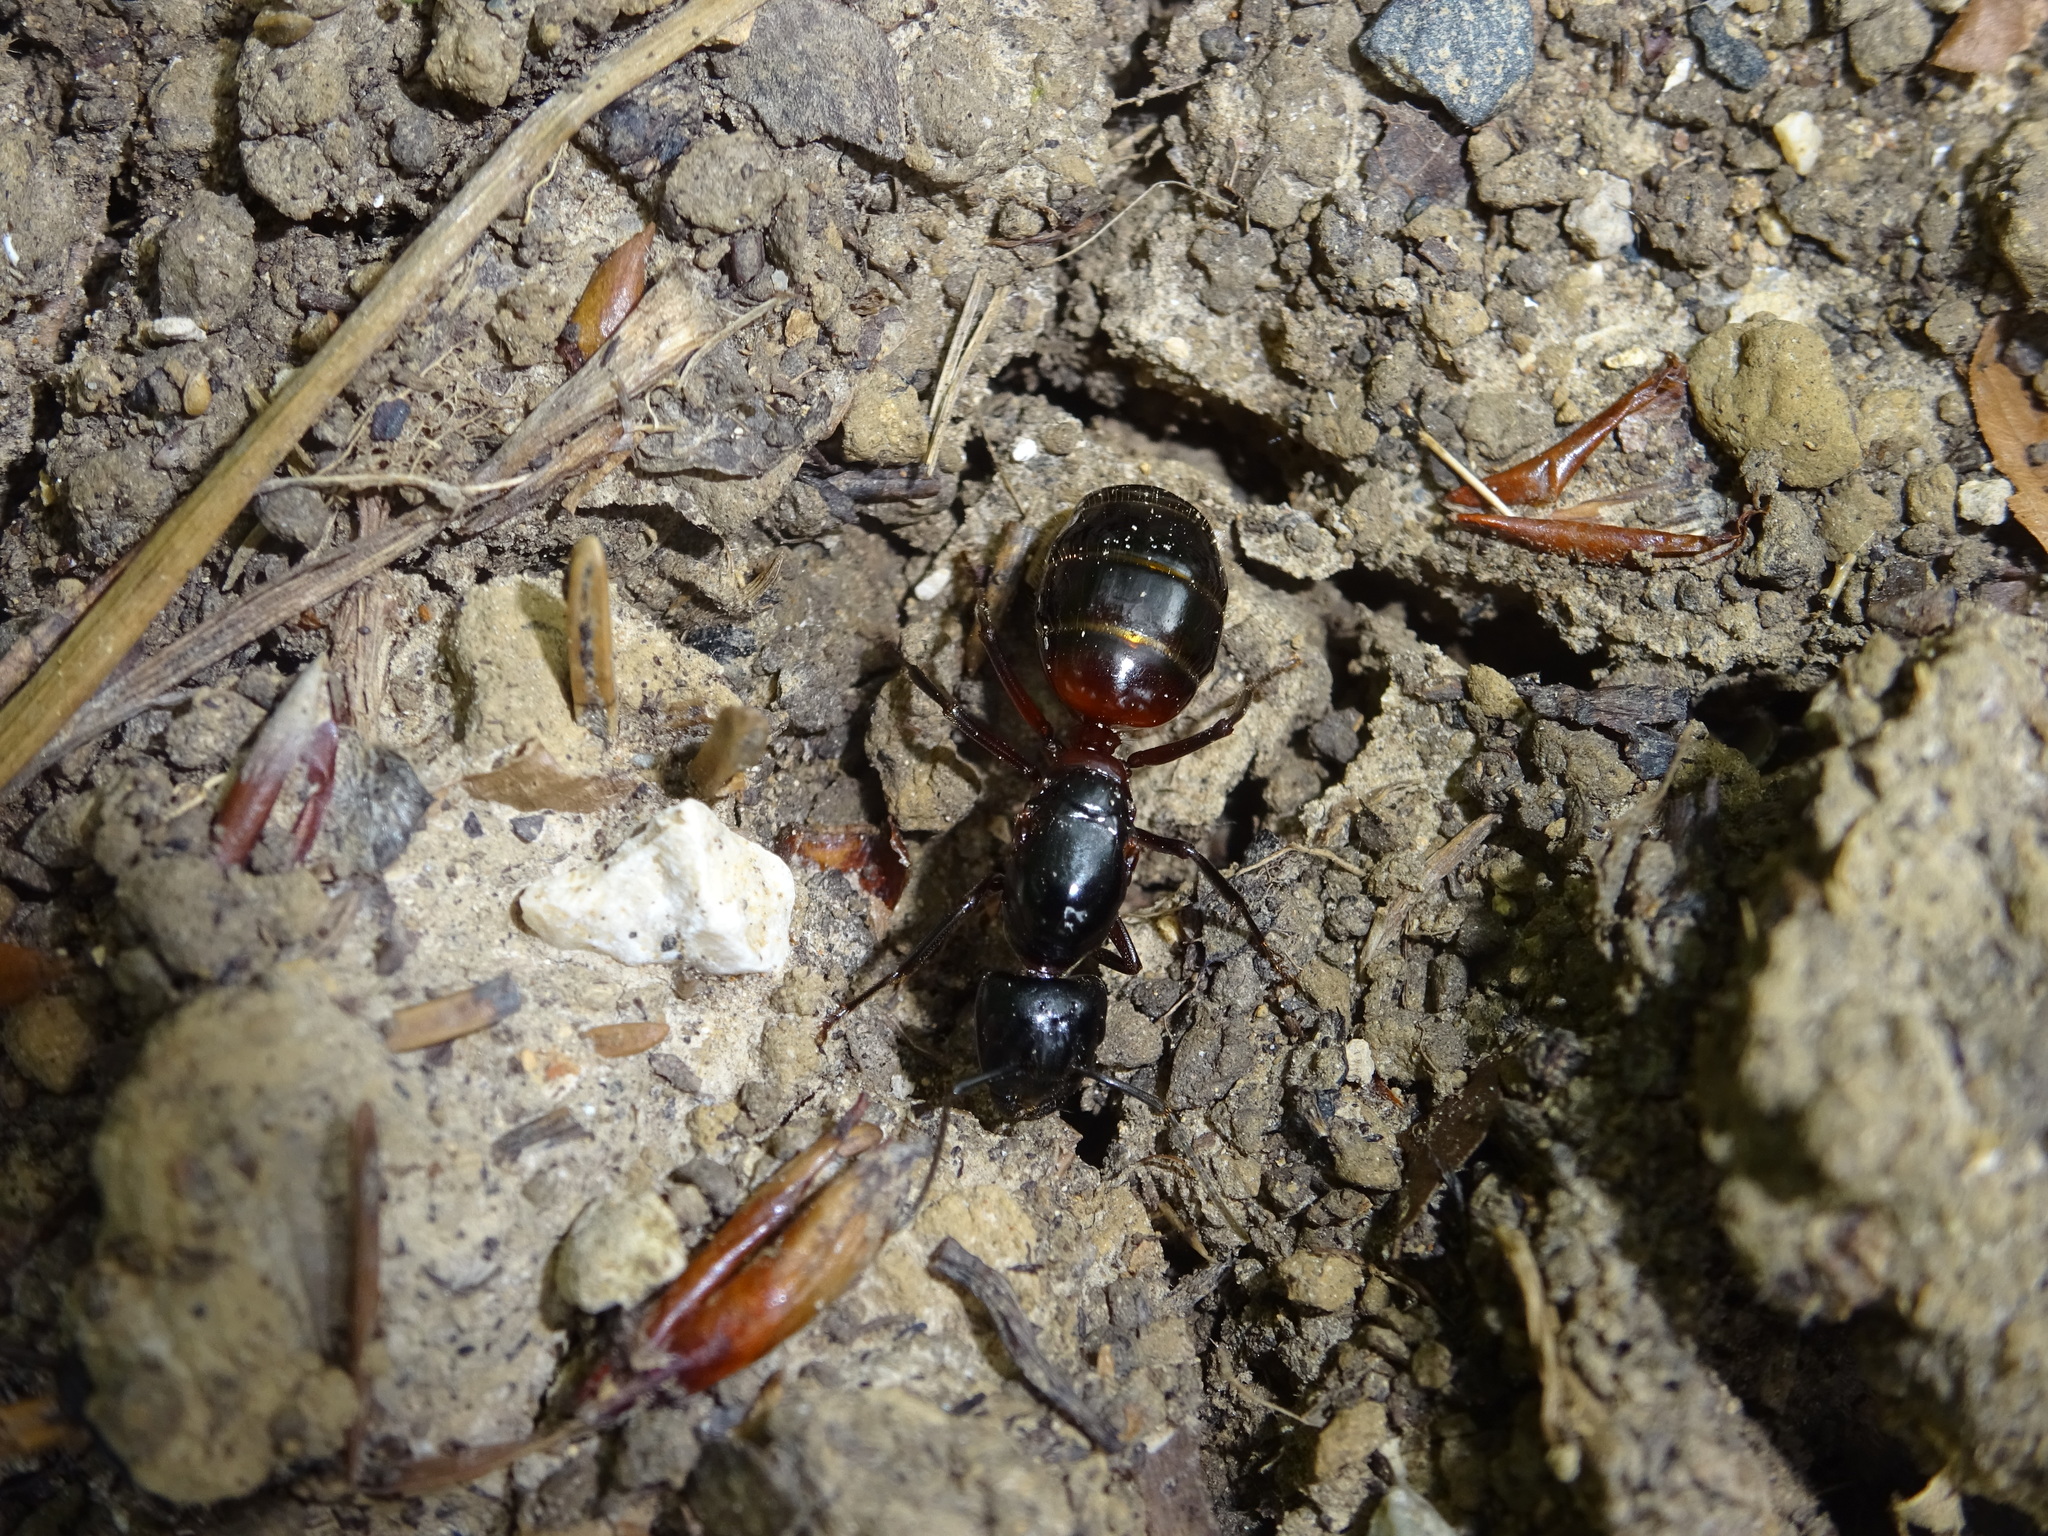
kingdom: Animalia
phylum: Arthropoda
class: Insecta
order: Hymenoptera
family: Formicidae
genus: Camponotus
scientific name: Camponotus ligniperdus
